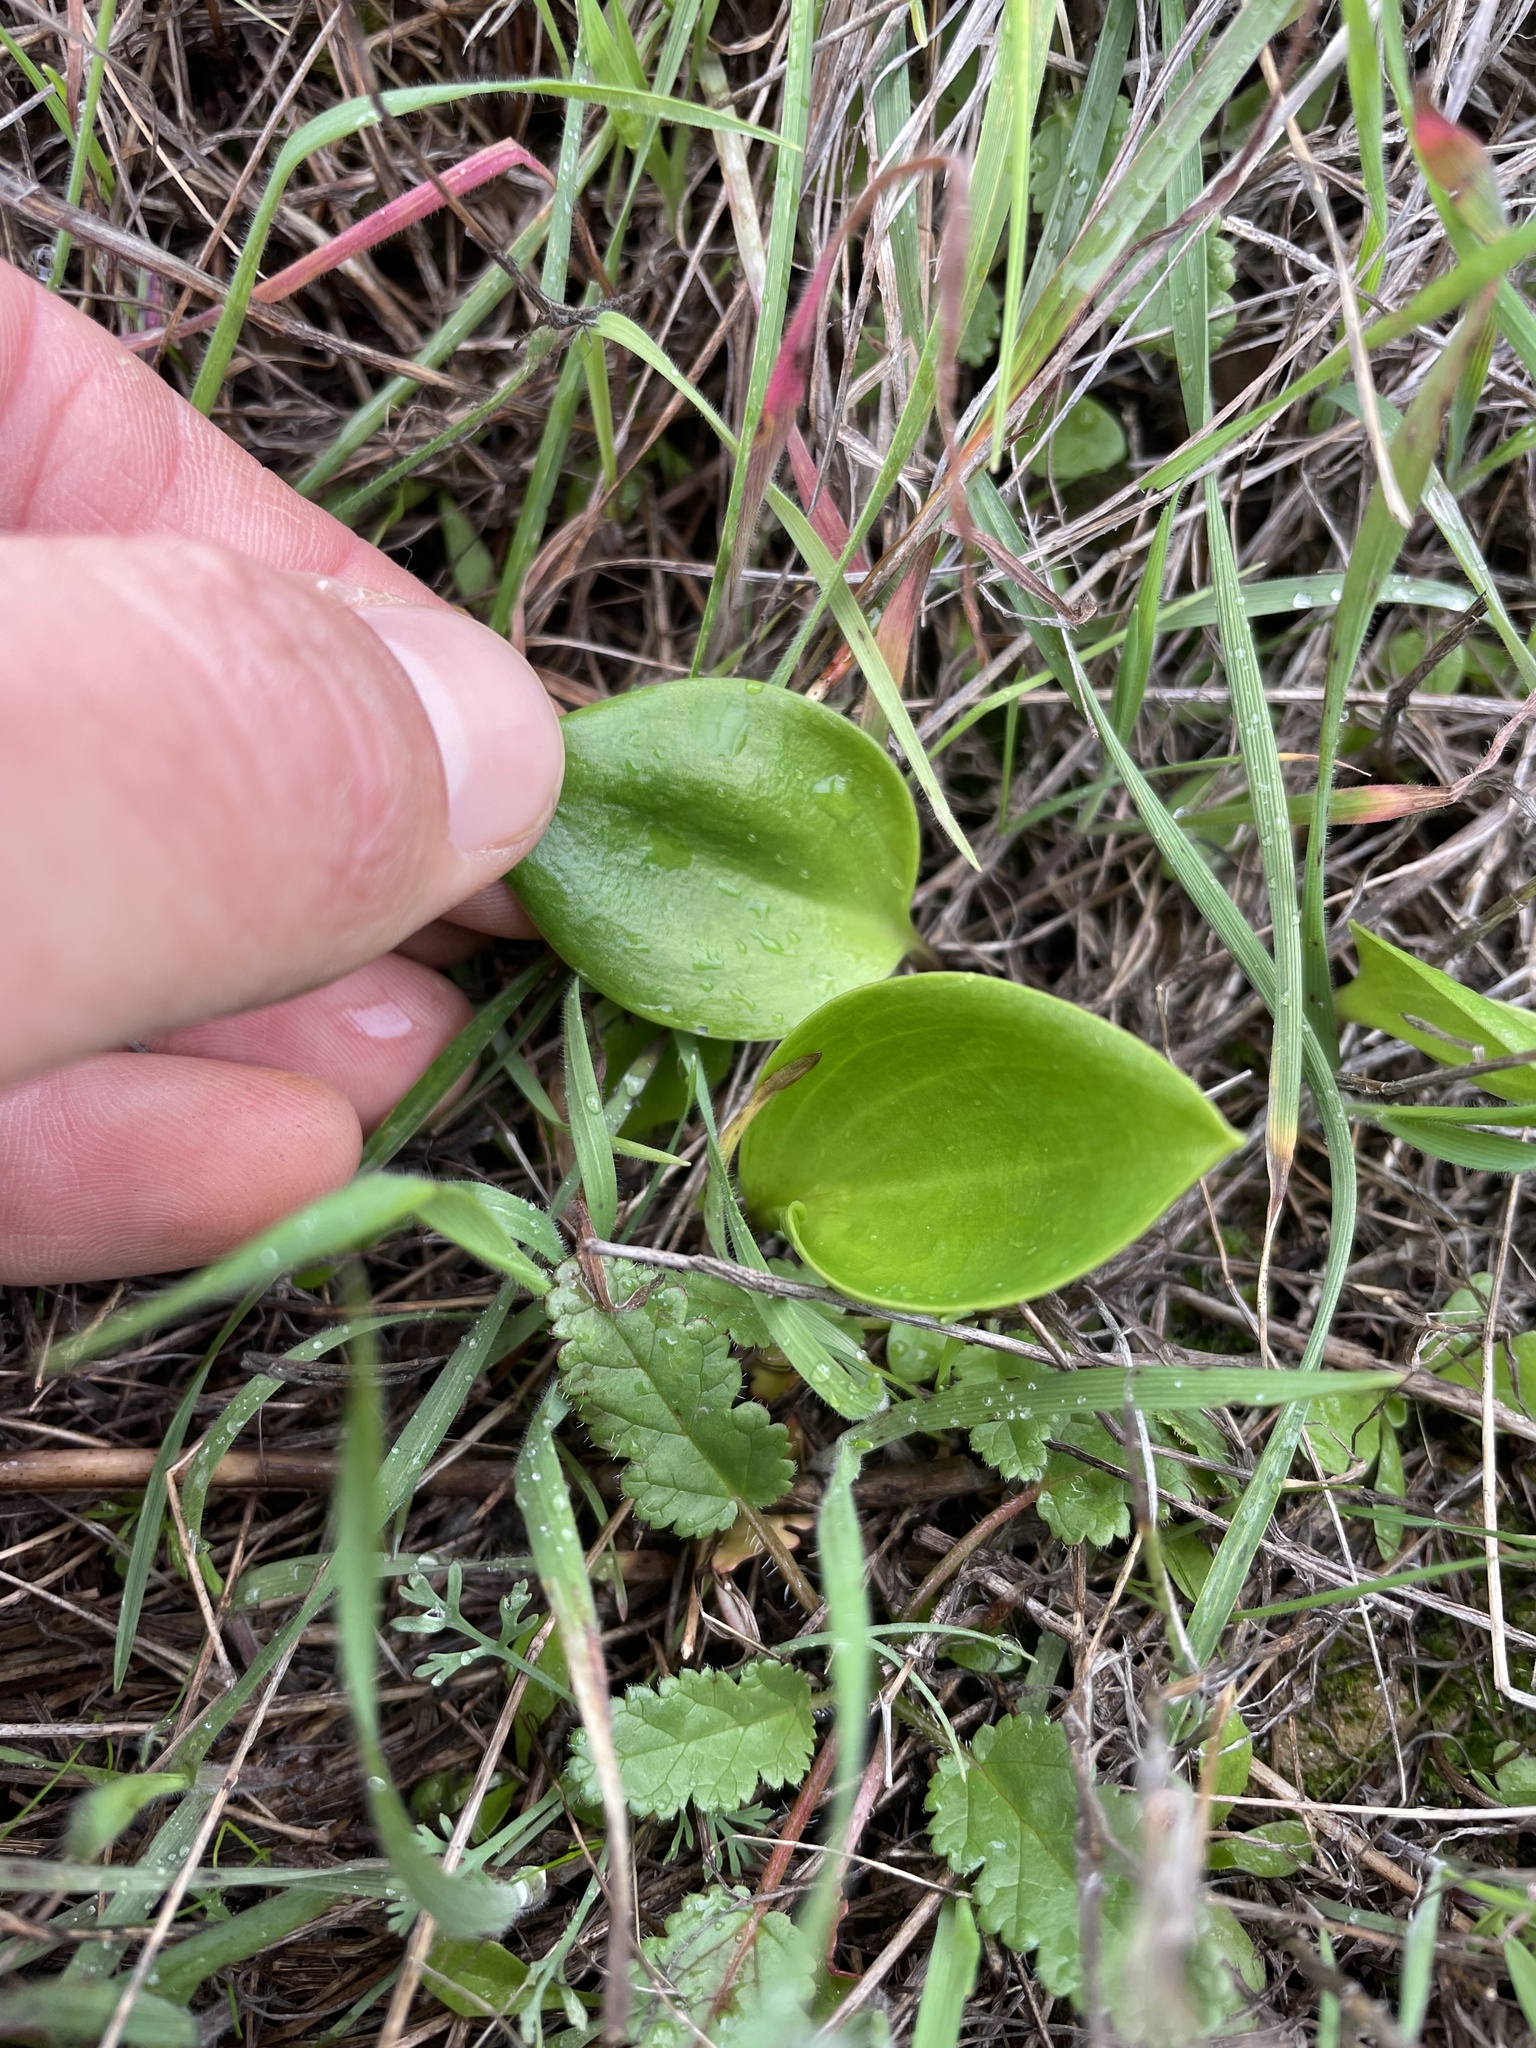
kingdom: Plantae
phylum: Tracheophyta
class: Liliopsida
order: Liliales
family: Liliaceae
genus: Fritillaria
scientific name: Fritillaria affinis
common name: Ojai fritillary
